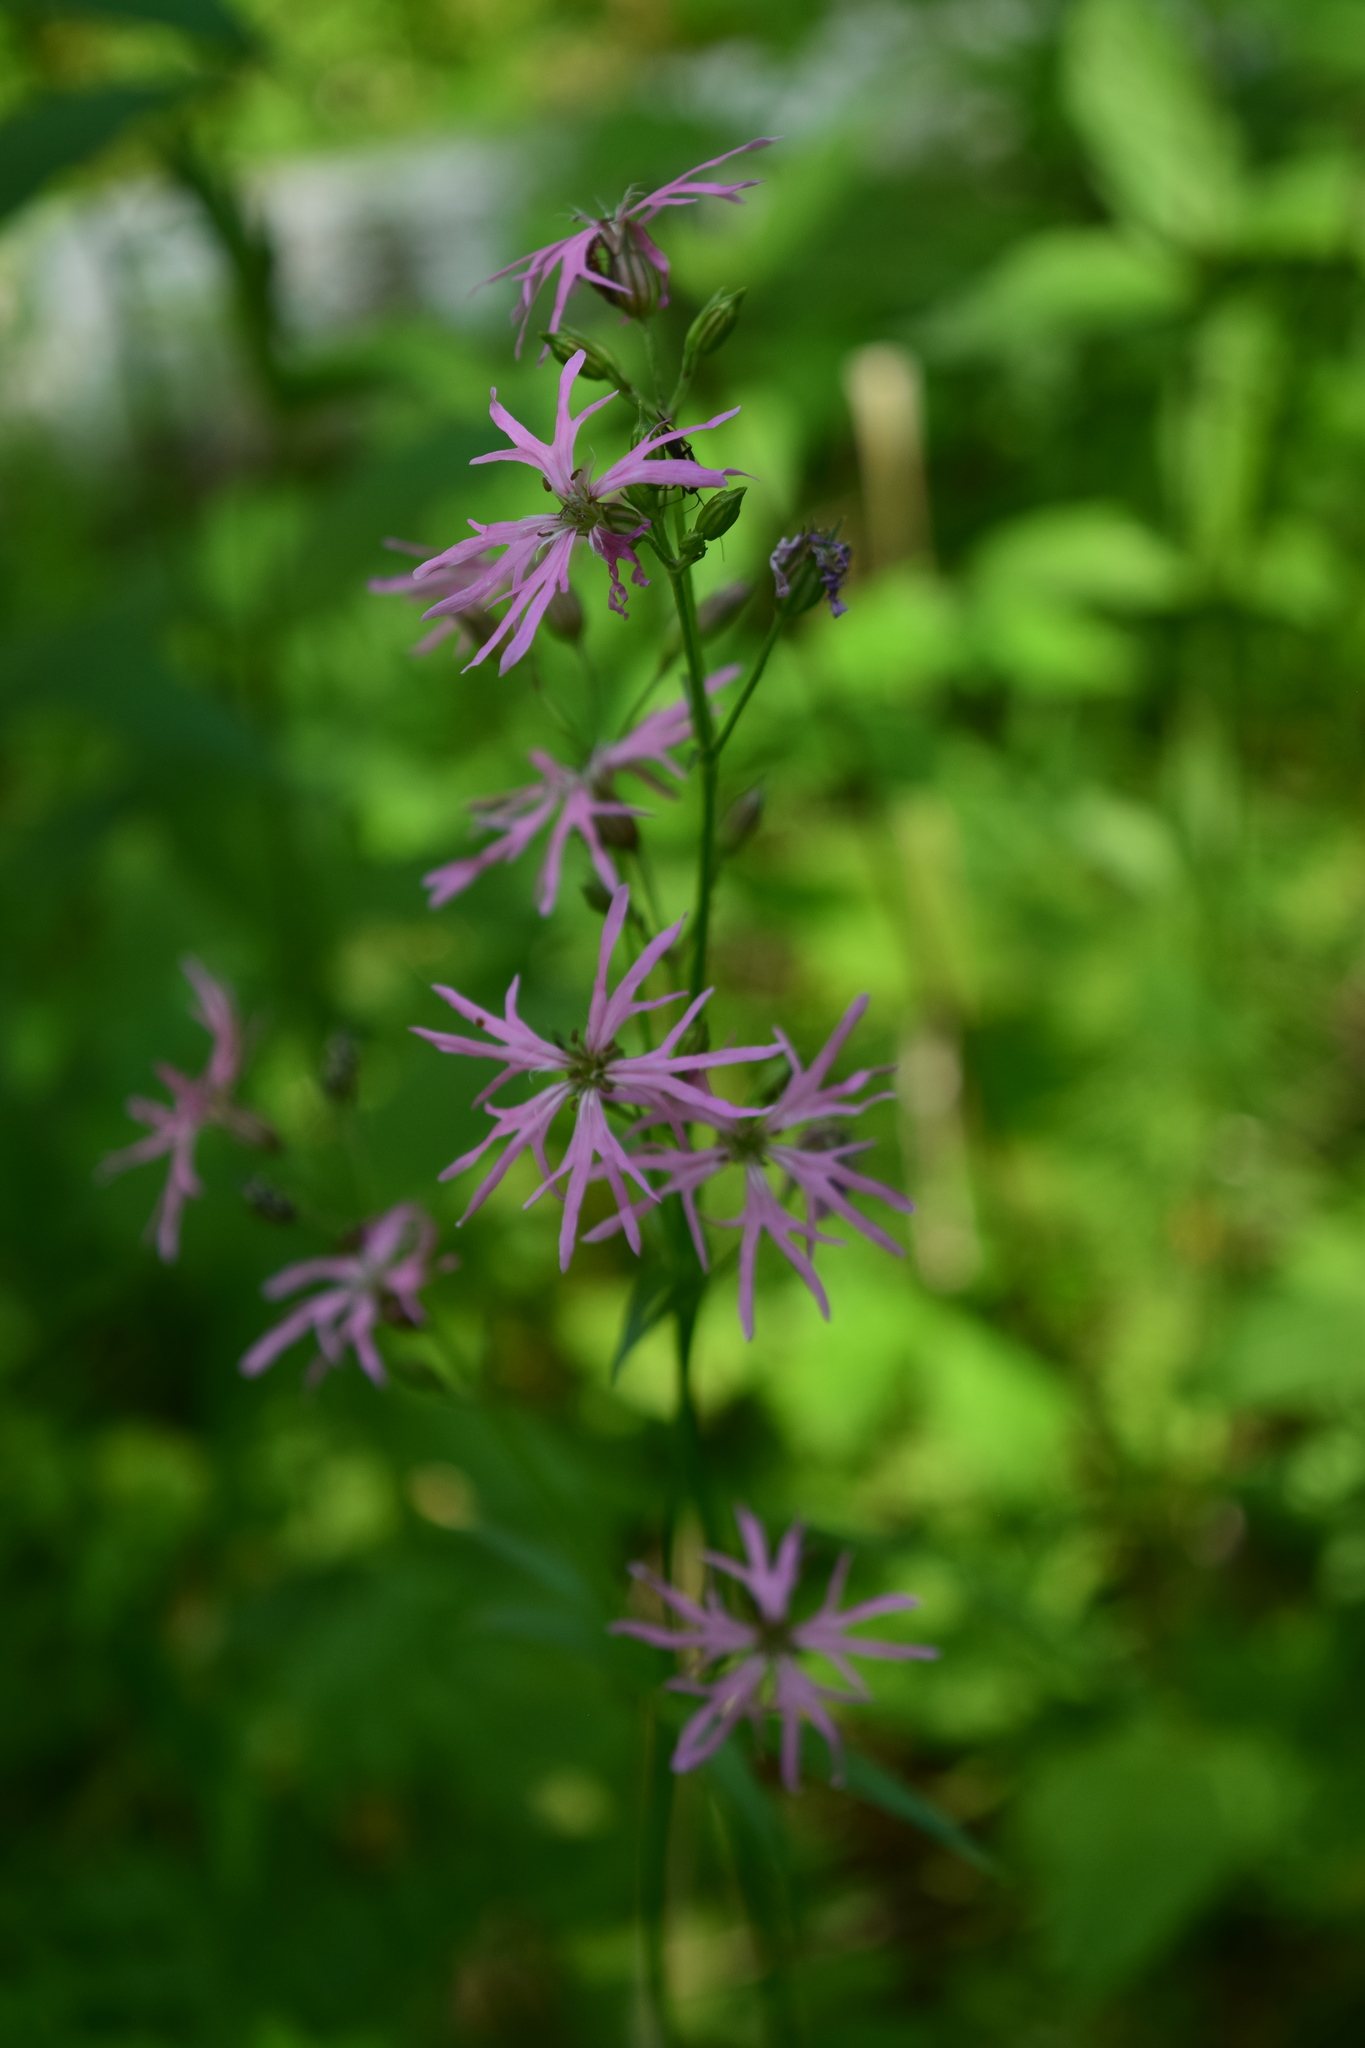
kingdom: Plantae
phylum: Tracheophyta
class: Magnoliopsida
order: Caryophyllales
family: Caryophyllaceae
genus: Silene
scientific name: Silene flos-cuculi
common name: Ragged-robin
